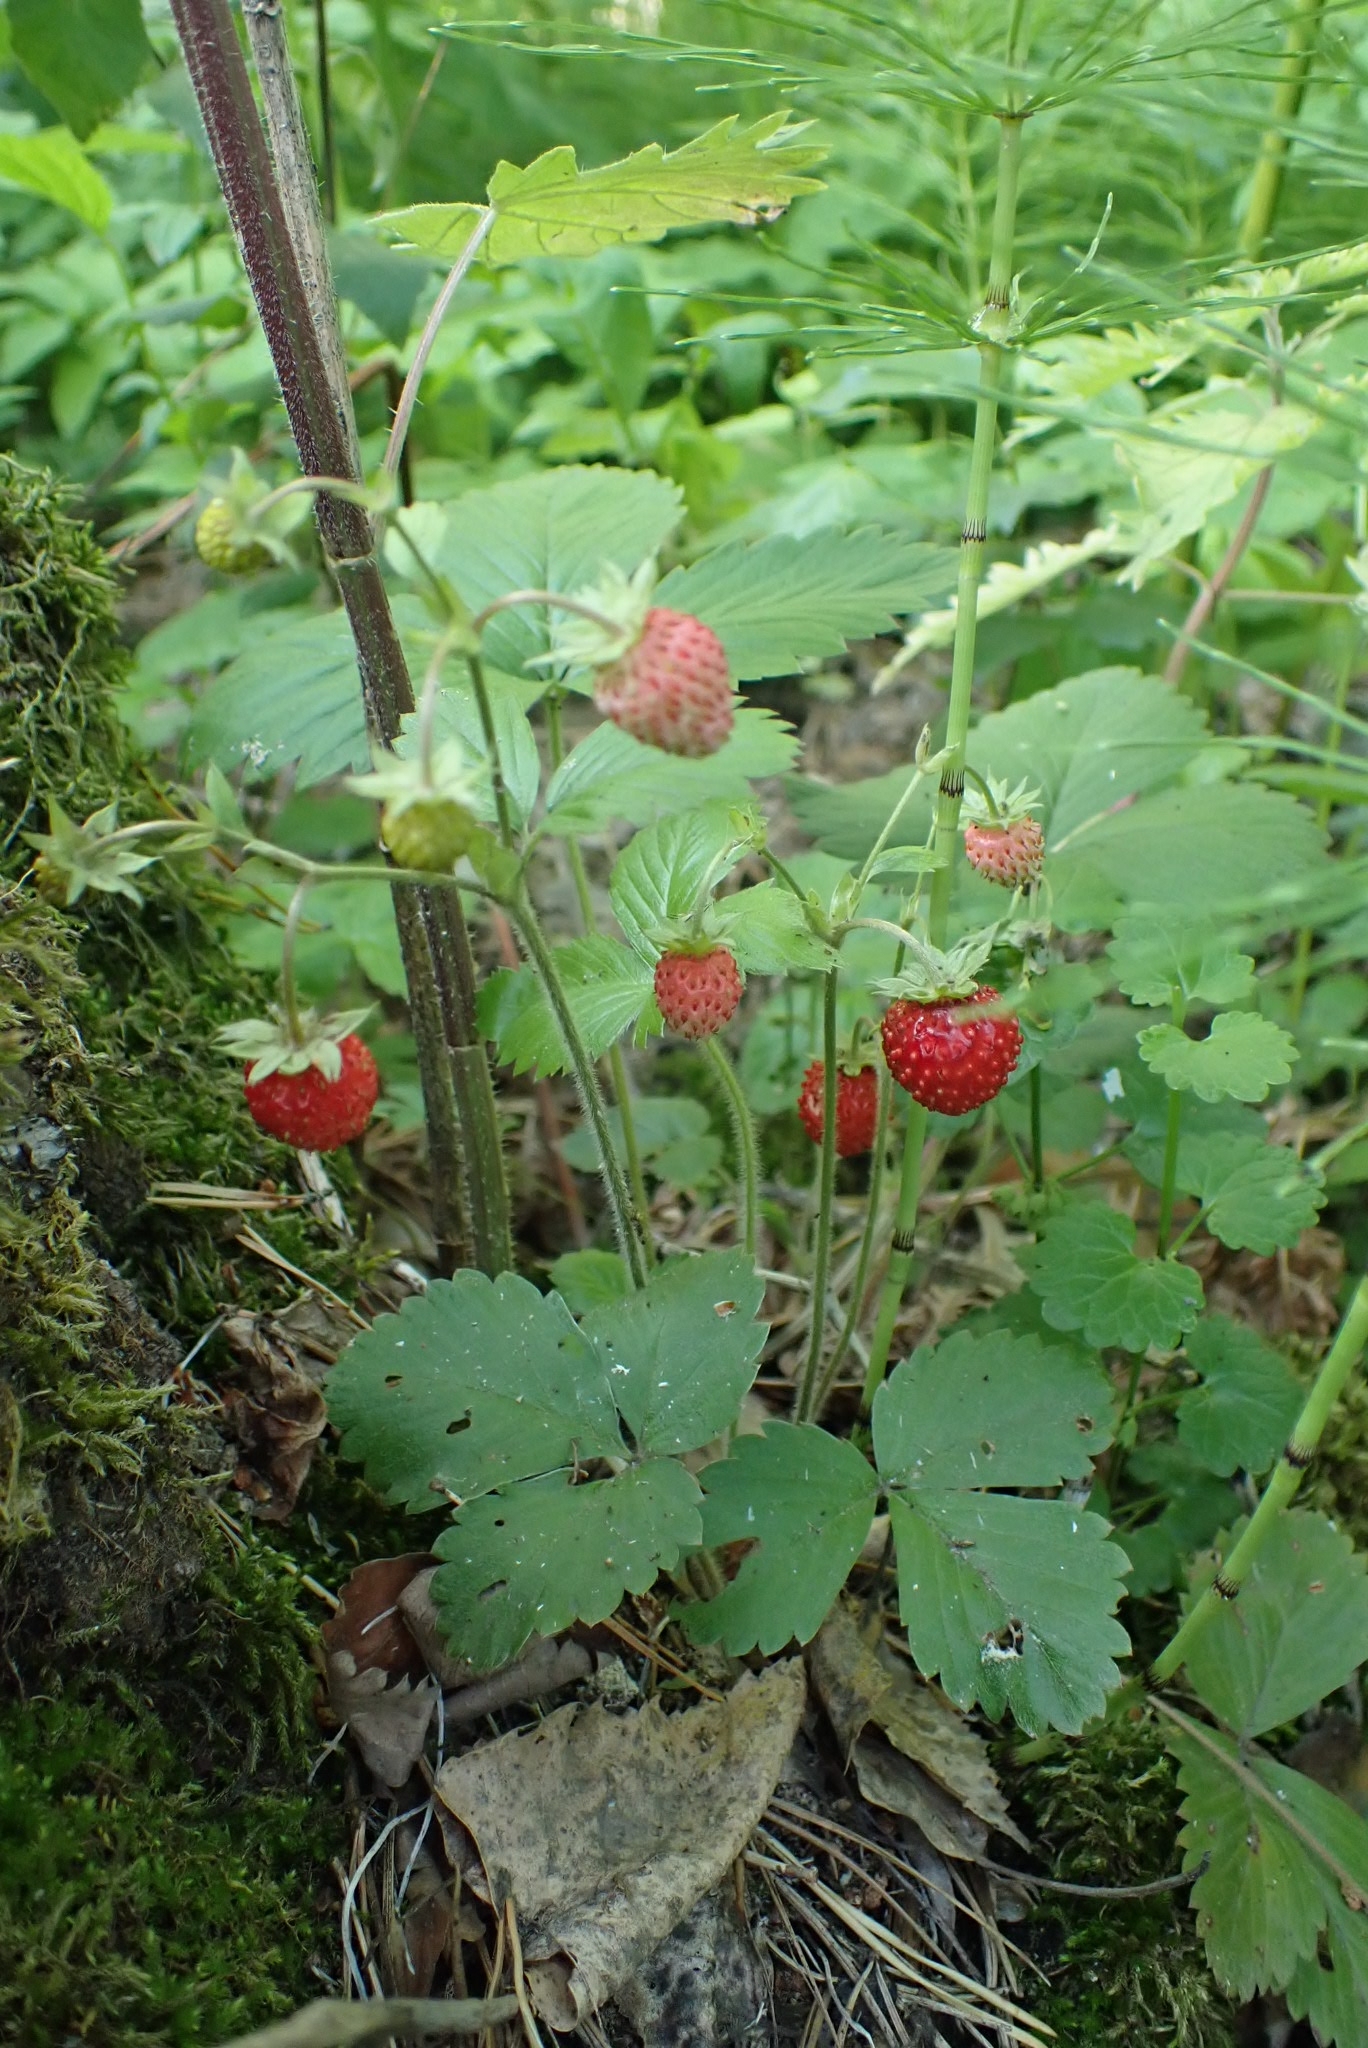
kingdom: Plantae
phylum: Tracheophyta
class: Magnoliopsida
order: Rosales
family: Rosaceae
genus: Fragaria
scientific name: Fragaria vesca
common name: Wild strawberry
